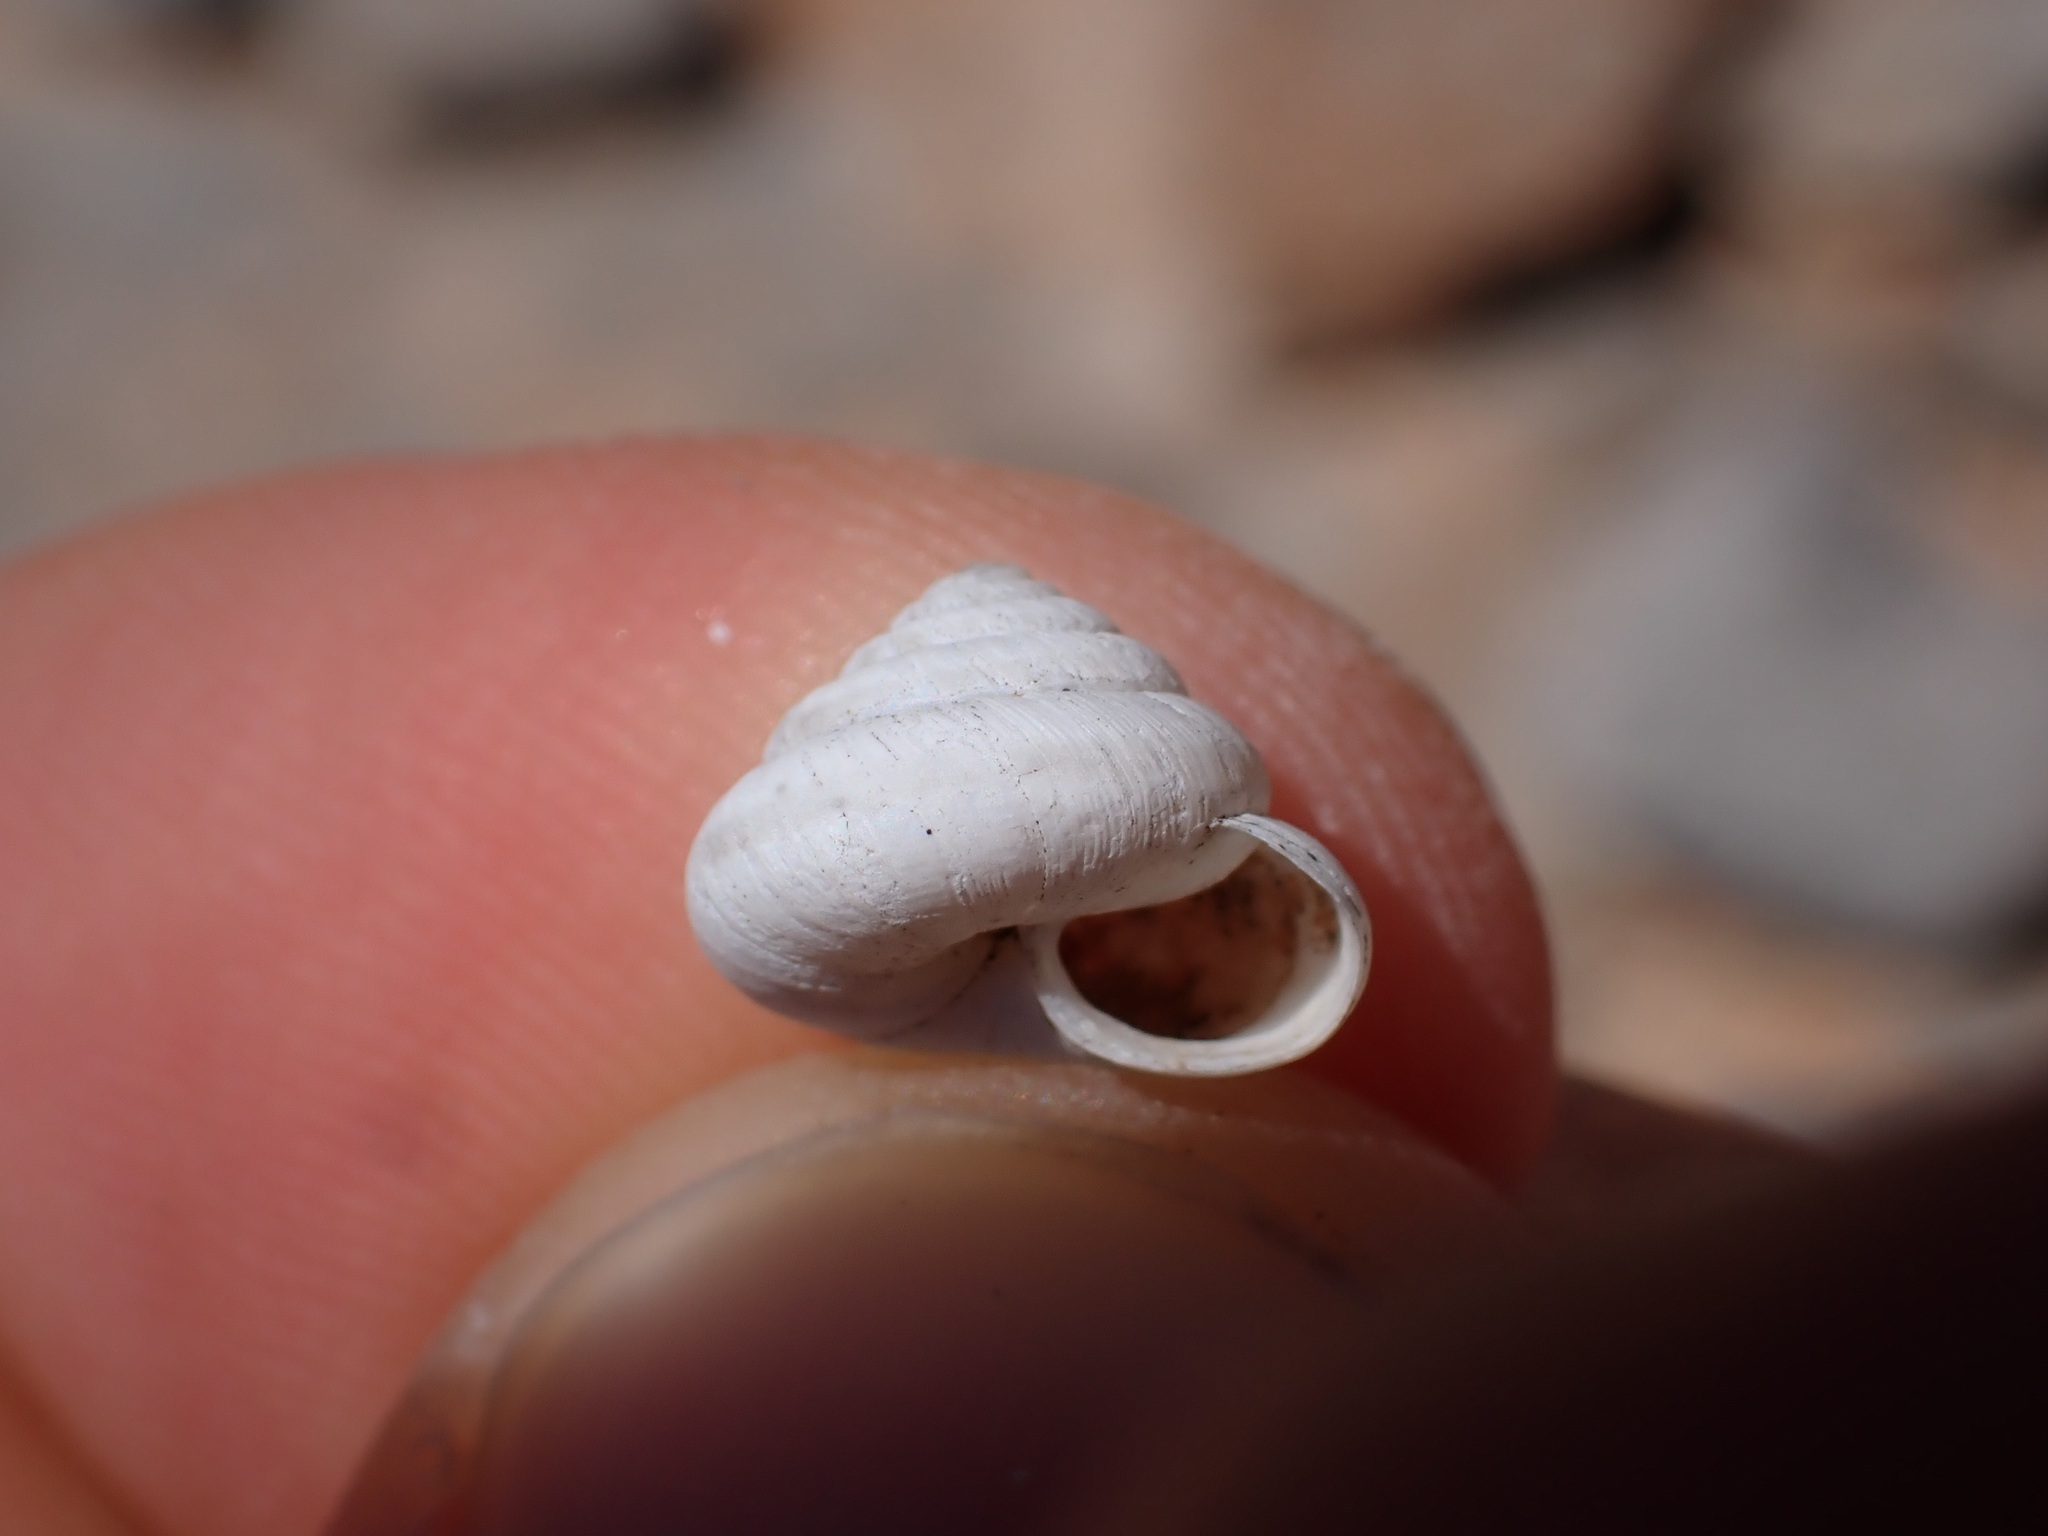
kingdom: Animalia
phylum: Mollusca
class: Gastropoda
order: Stylommatophora
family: Geomitridae
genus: Trochoidea
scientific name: Trochoidea pyramidata
